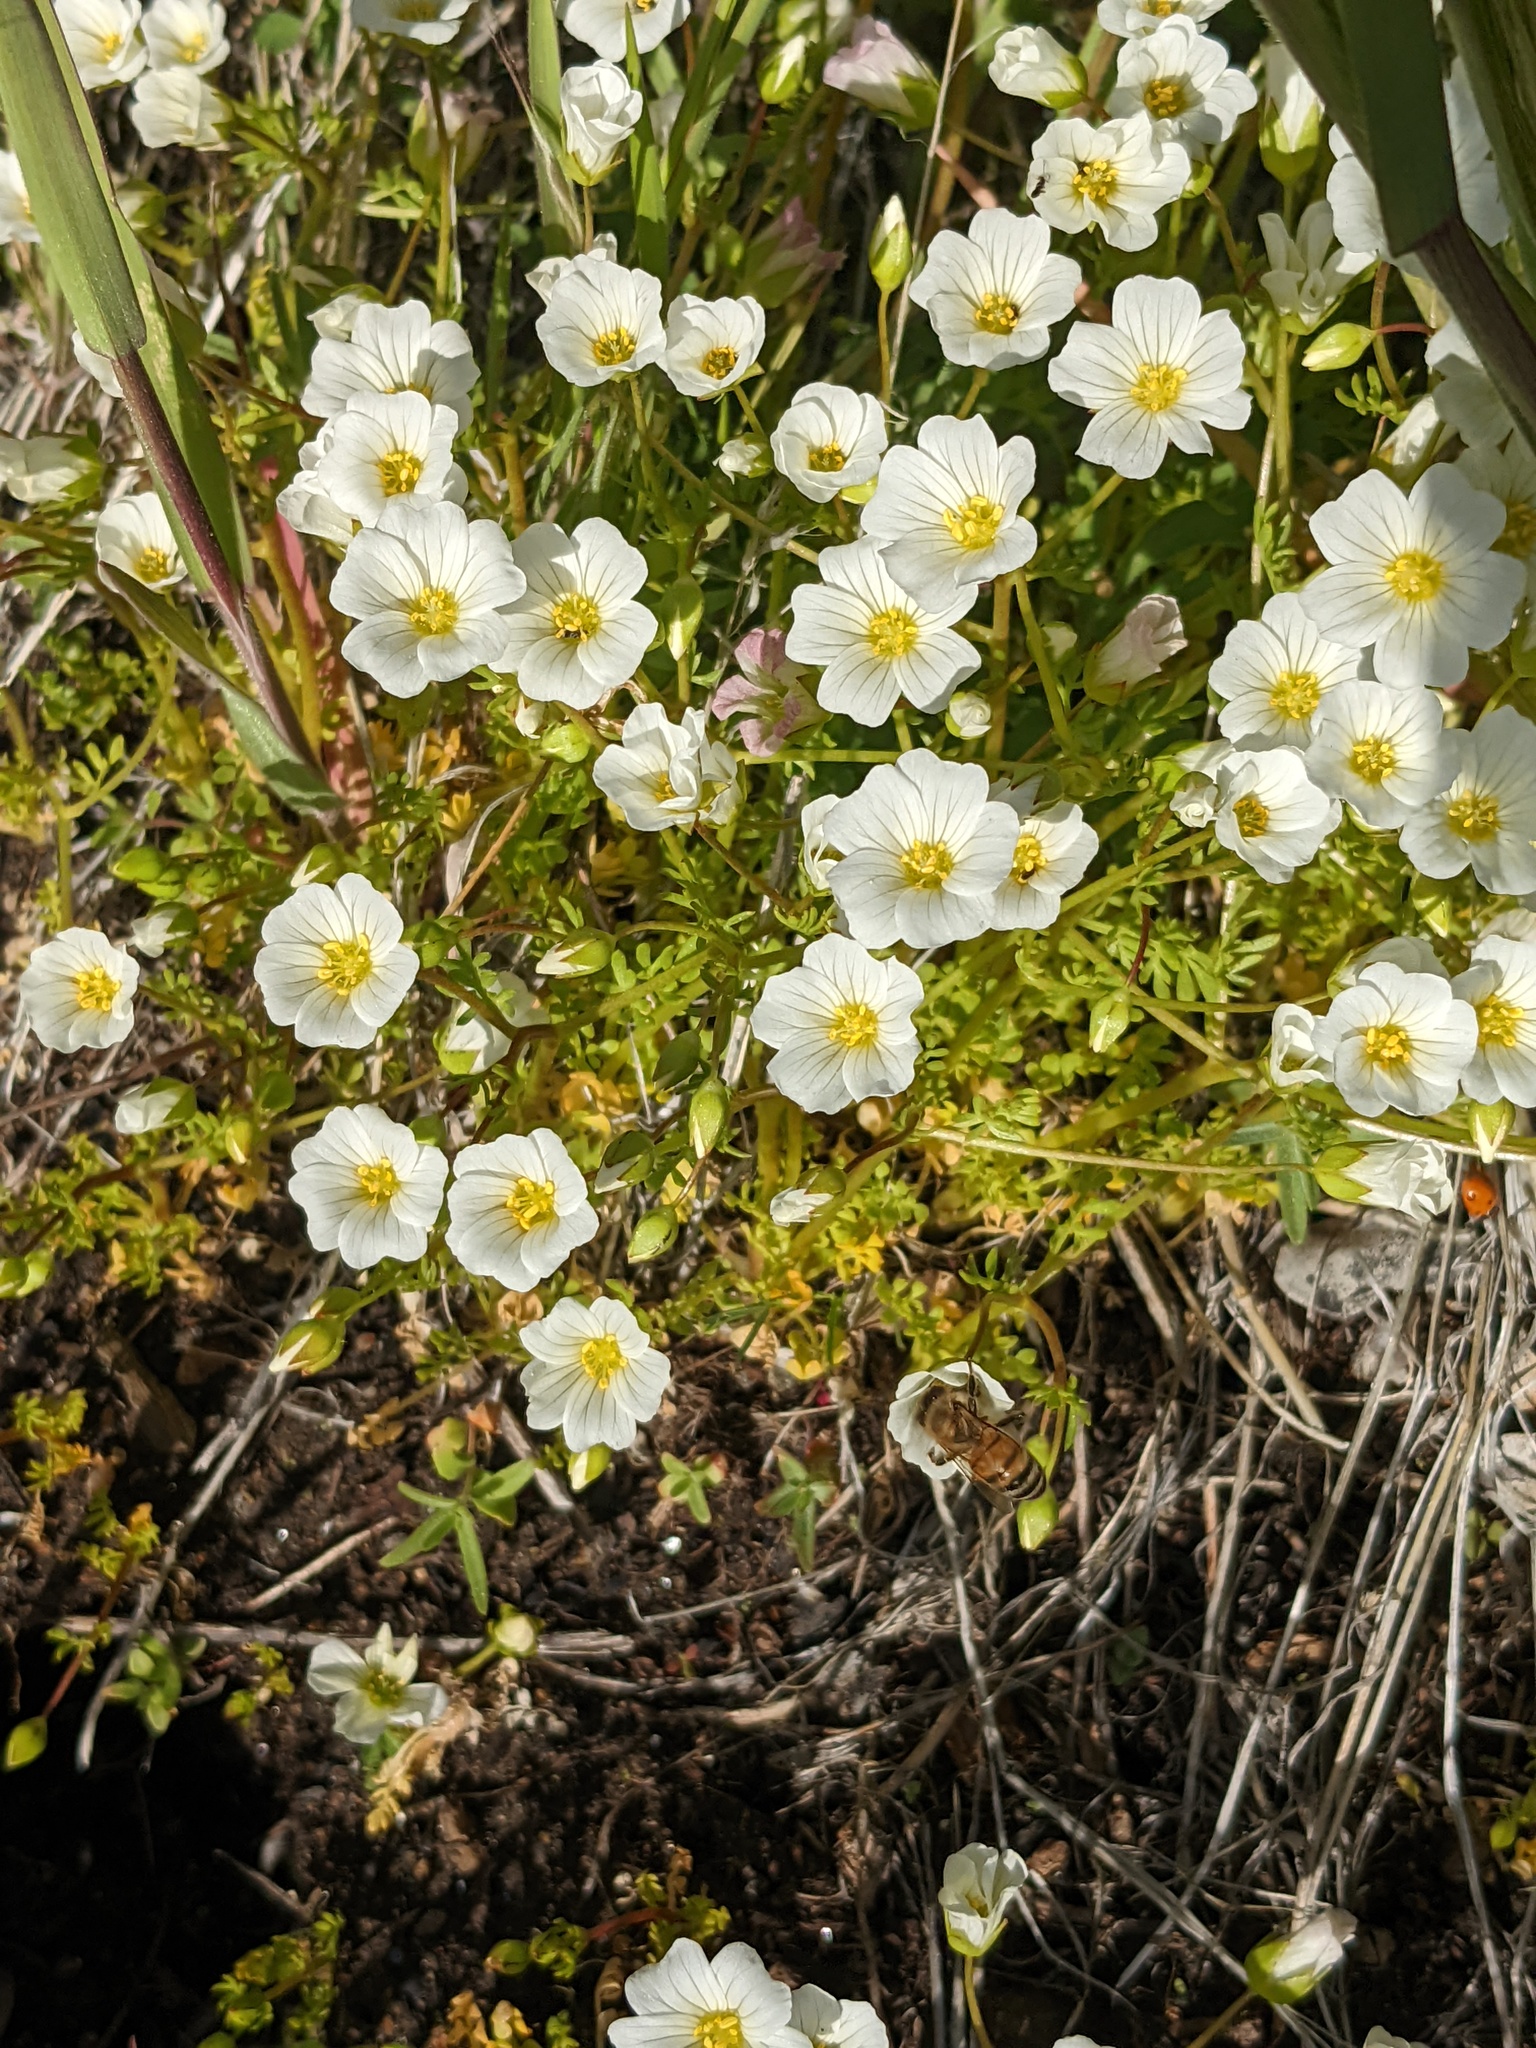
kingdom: Plantae
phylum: Tracheophyta
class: Magnoliopsida
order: Brassicales
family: Limnanthaceae
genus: Limnanthes
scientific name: Limnanthes alba
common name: Meadowfoam
